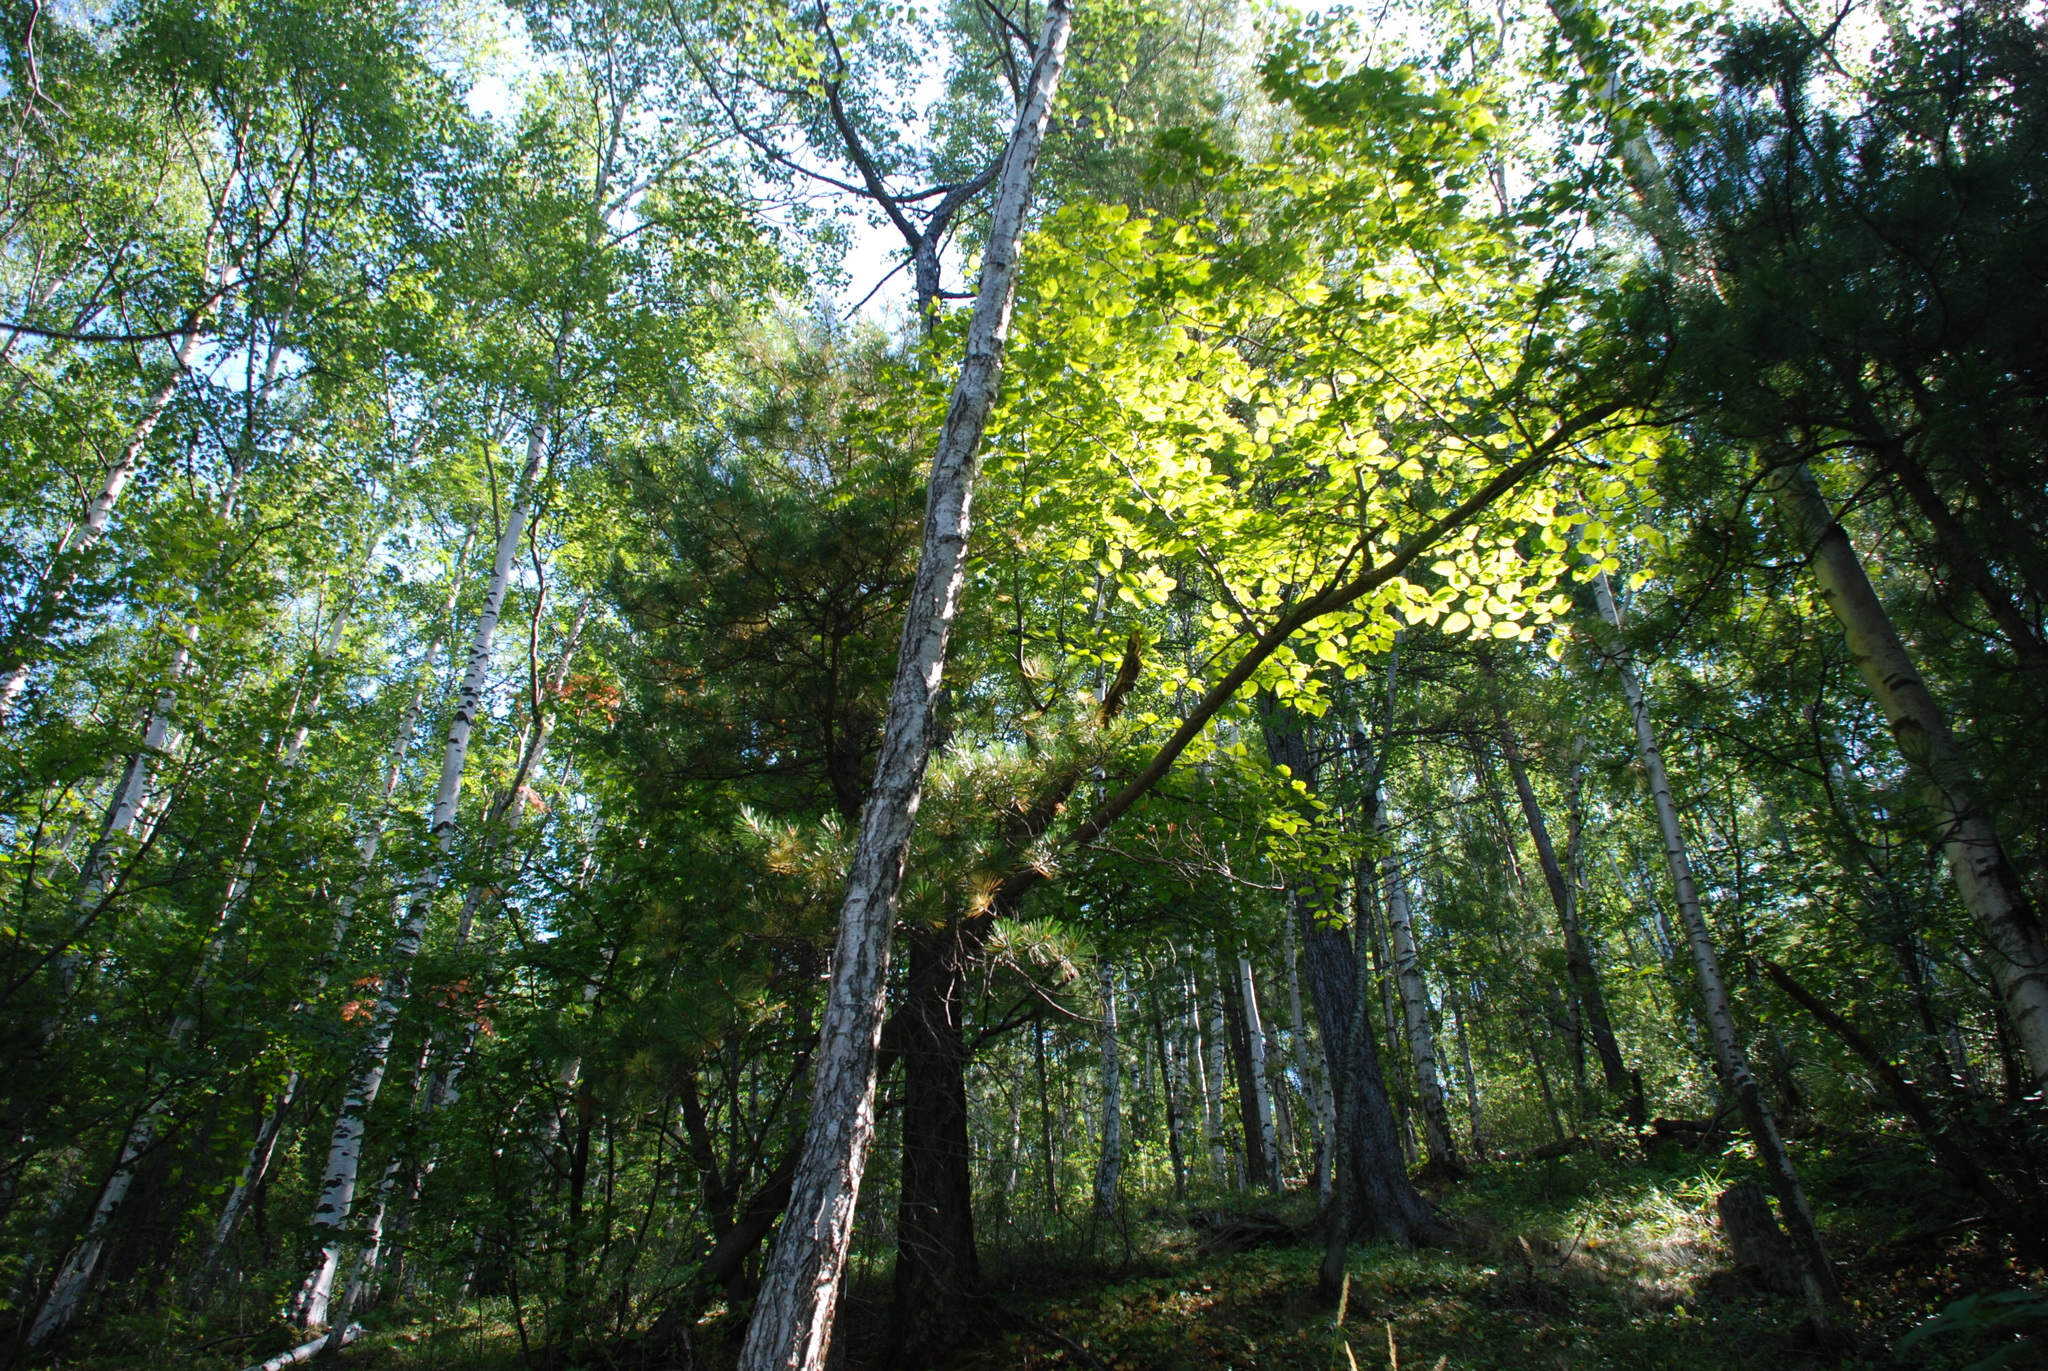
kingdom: Plantae
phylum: Tracheophyta
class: Magnoliopsida
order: Fagales
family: Betulaceae
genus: Betula
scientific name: Betula pendula
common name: Silver birch
